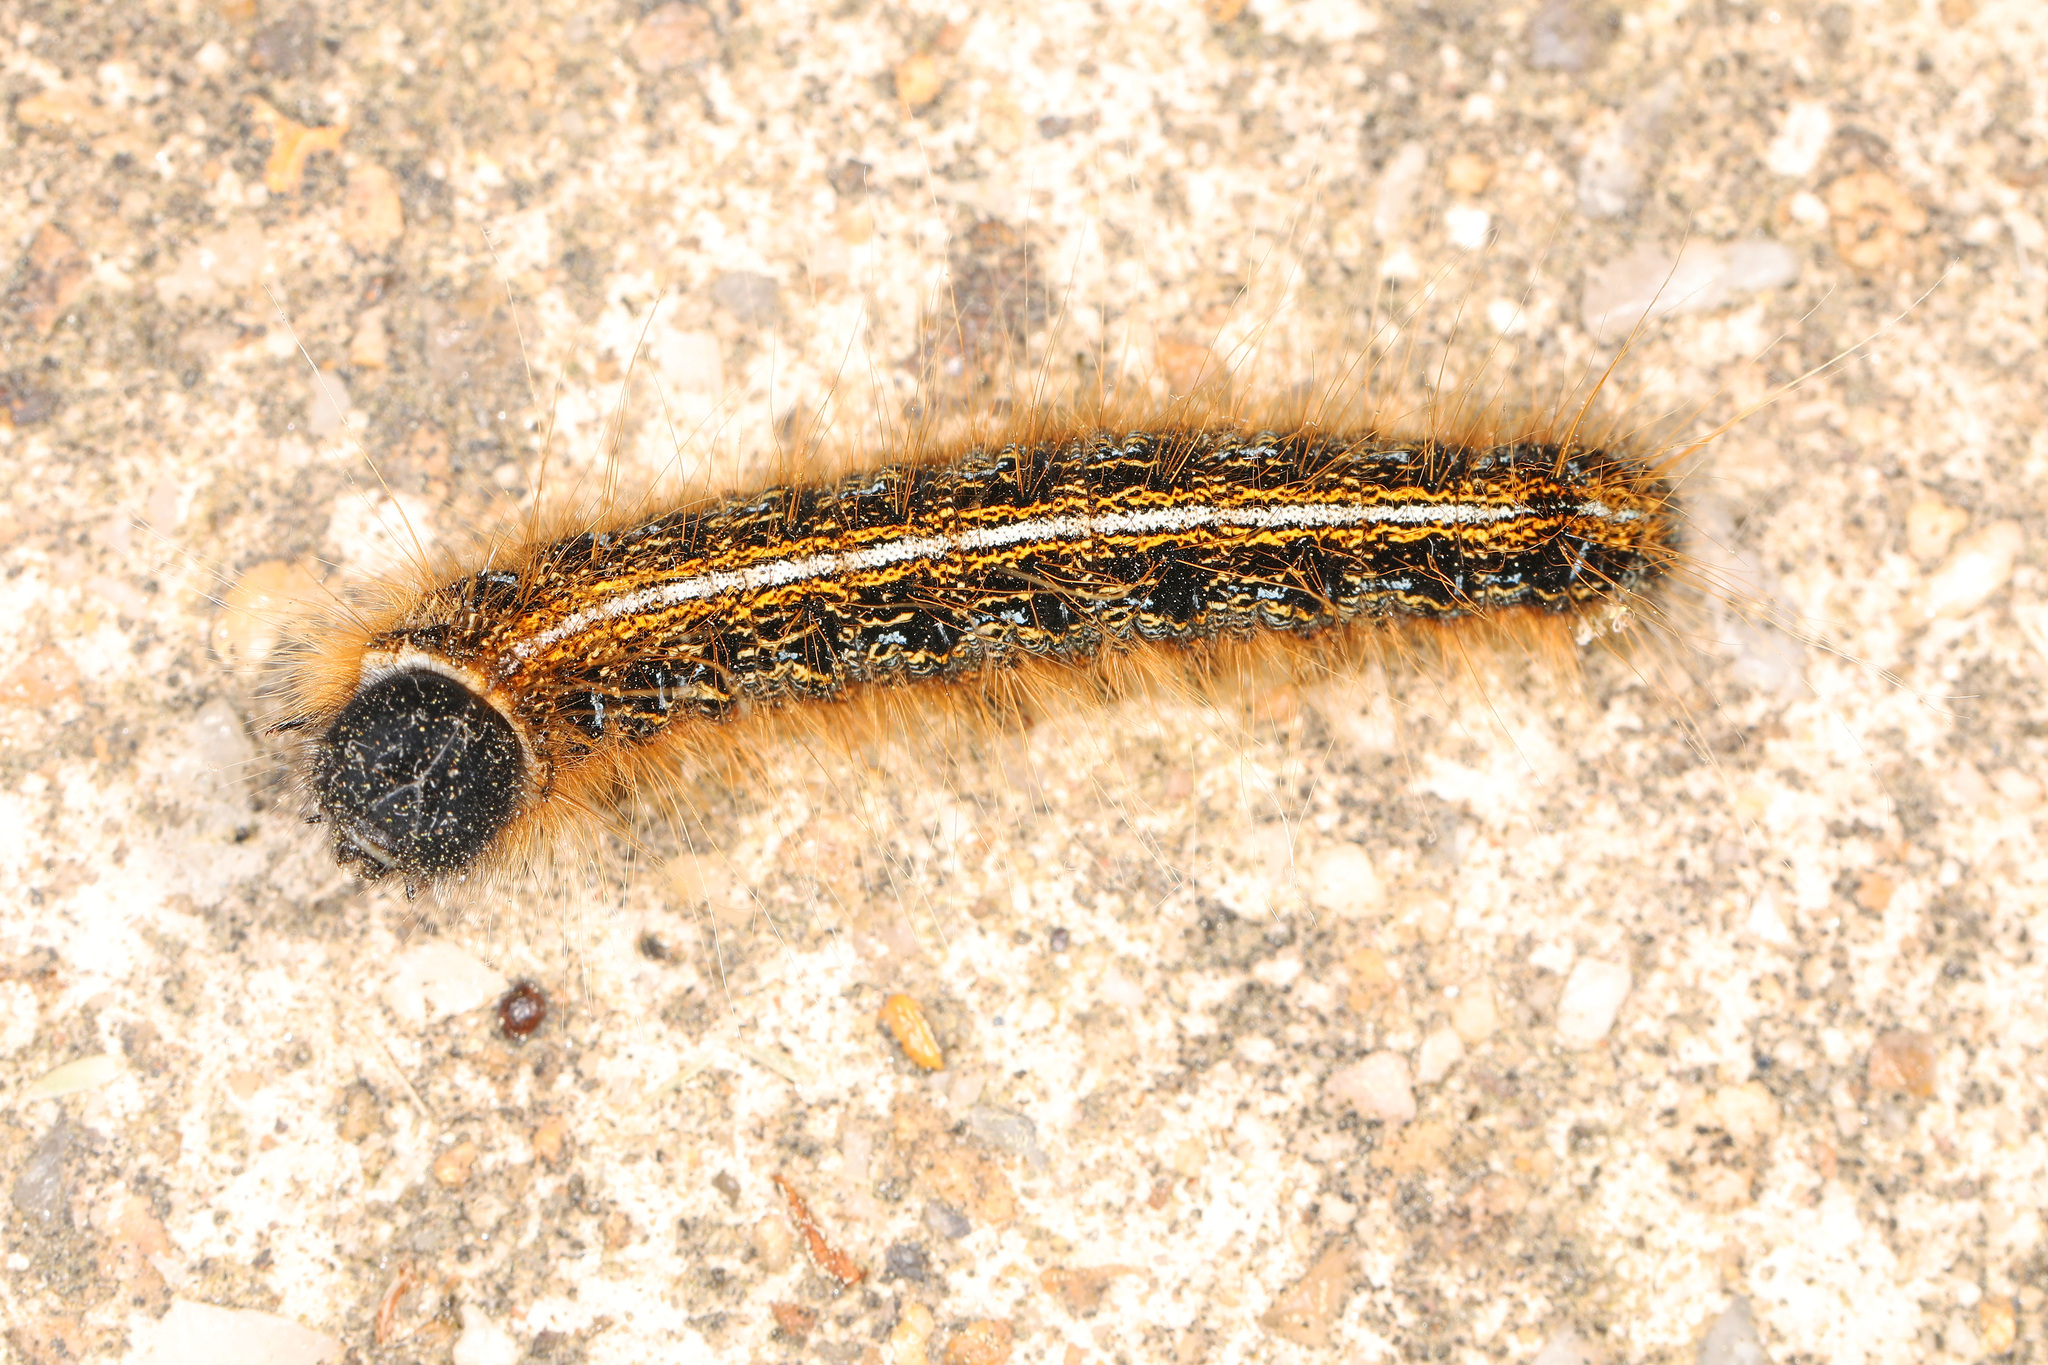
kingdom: Animalia
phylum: Arthropoda
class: Insecta
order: Lepidoptera
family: Lasiocampidae
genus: Malacosoma
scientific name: Malacosoma americana
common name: Eastern tent caterpillar moth
